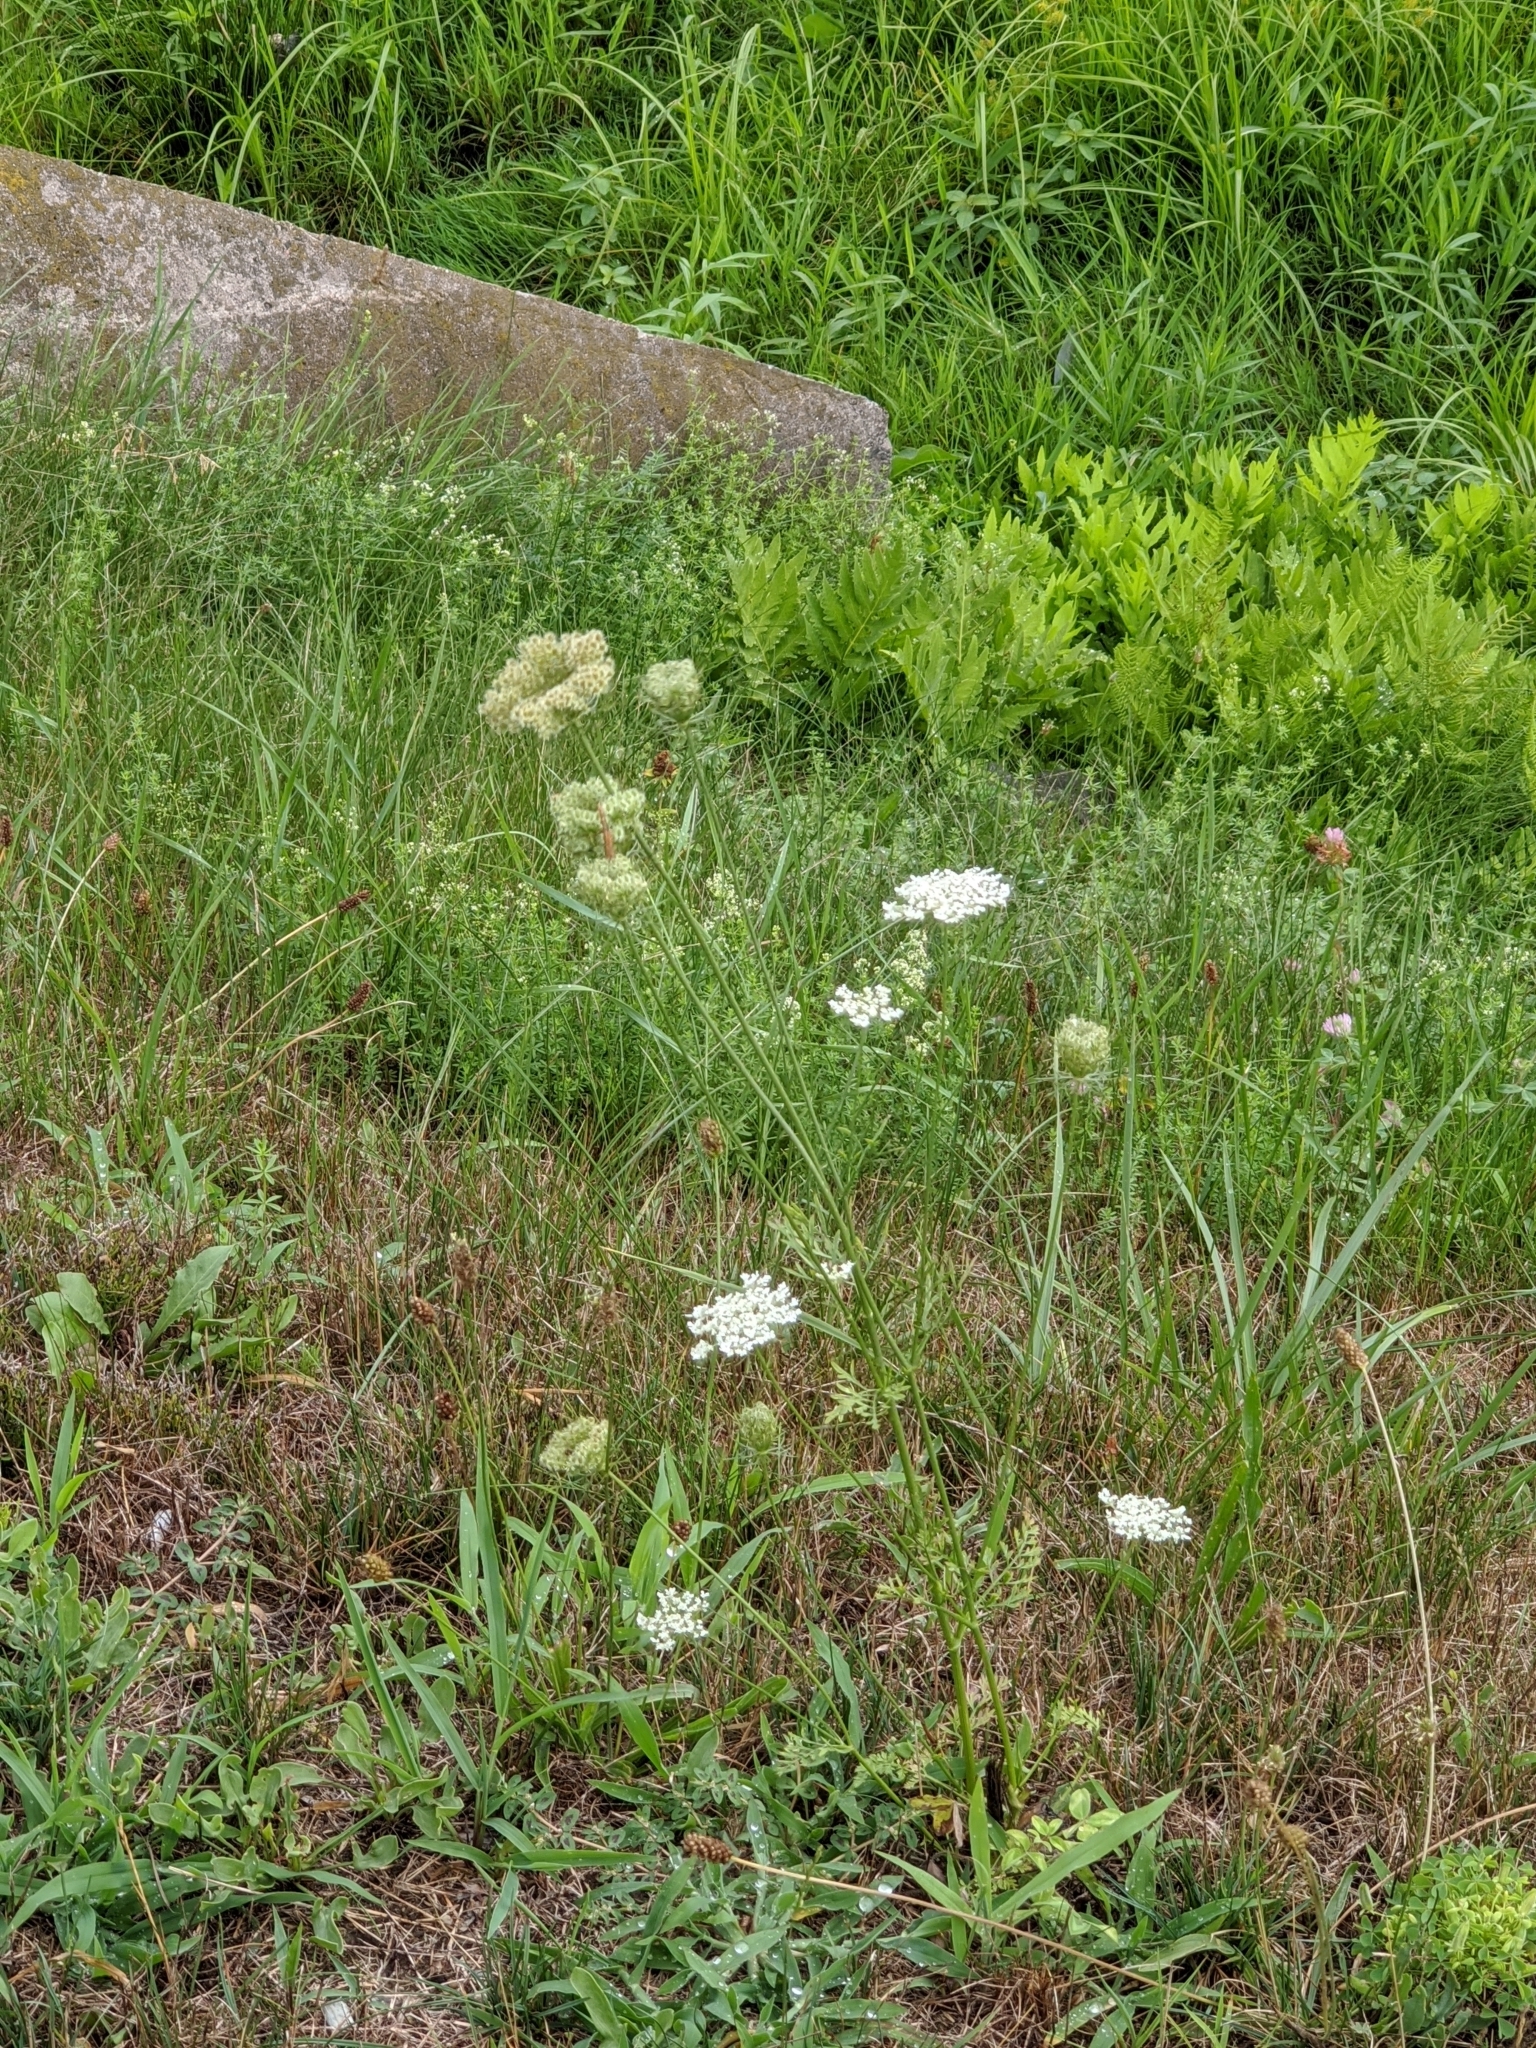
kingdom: Plantae
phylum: Tracheophyta
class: Magnoliopsida
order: Apiales
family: Apiaceae
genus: Daucus
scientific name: Daucus carota
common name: Wild carrot
